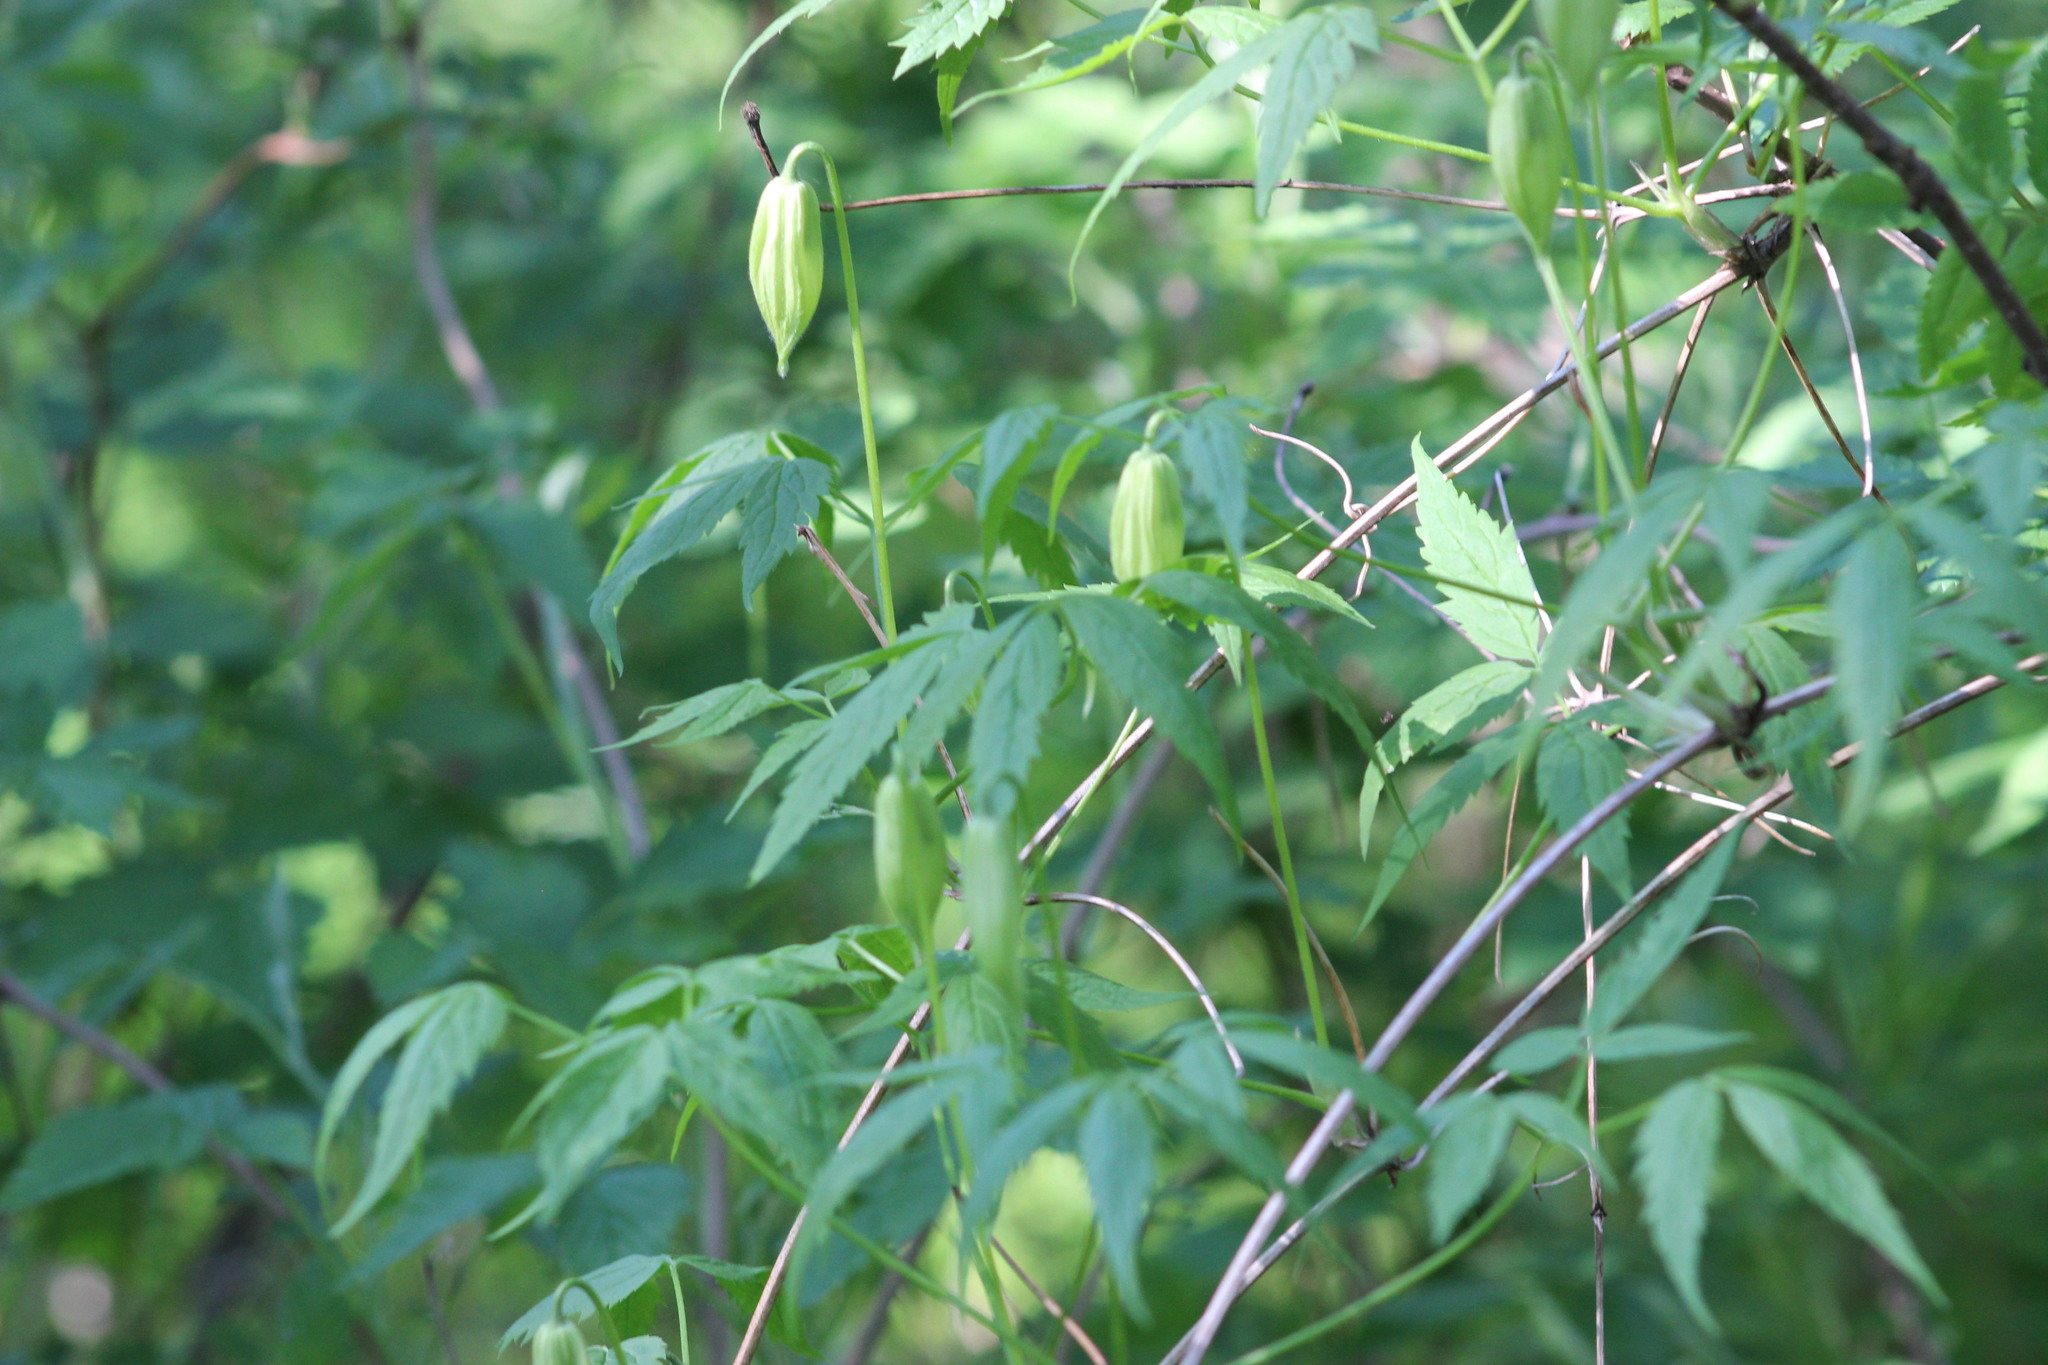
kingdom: Plantae
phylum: Tracheophyta
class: Magnoliopsida
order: Ranunculales
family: Ranunculaceae
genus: Clematis
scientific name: Clematis sibirica
